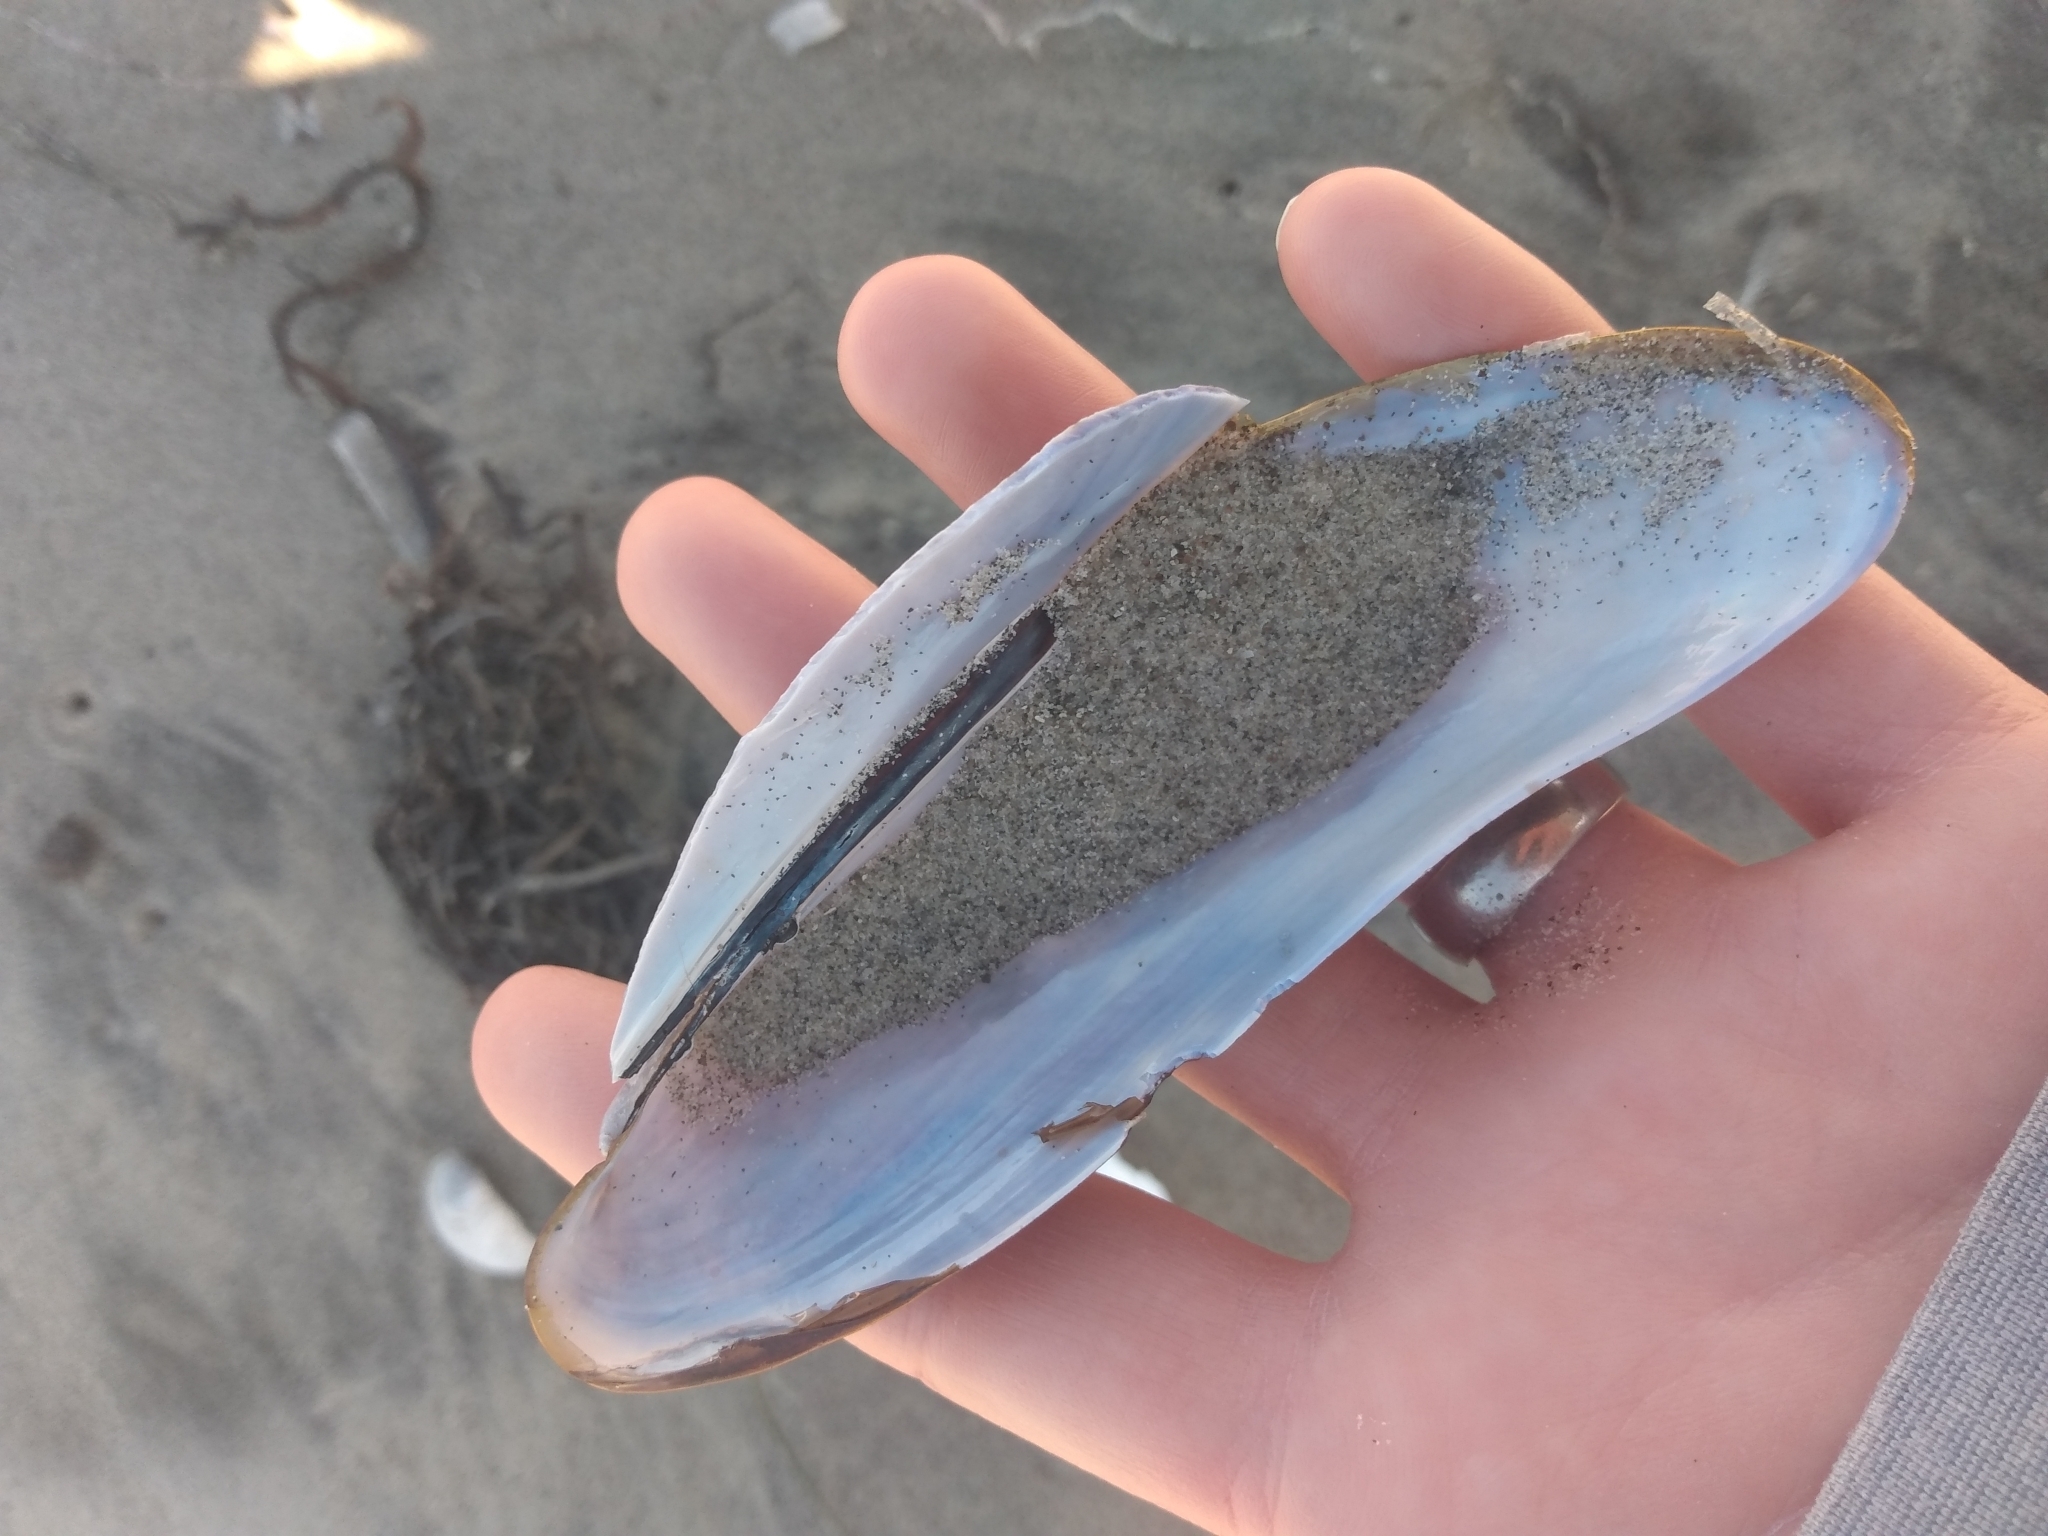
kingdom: Animalia
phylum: Mollusca
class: Bivalvia
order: Mytilida
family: Mytilidae
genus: Modiolus
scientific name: Modiolus rectus
